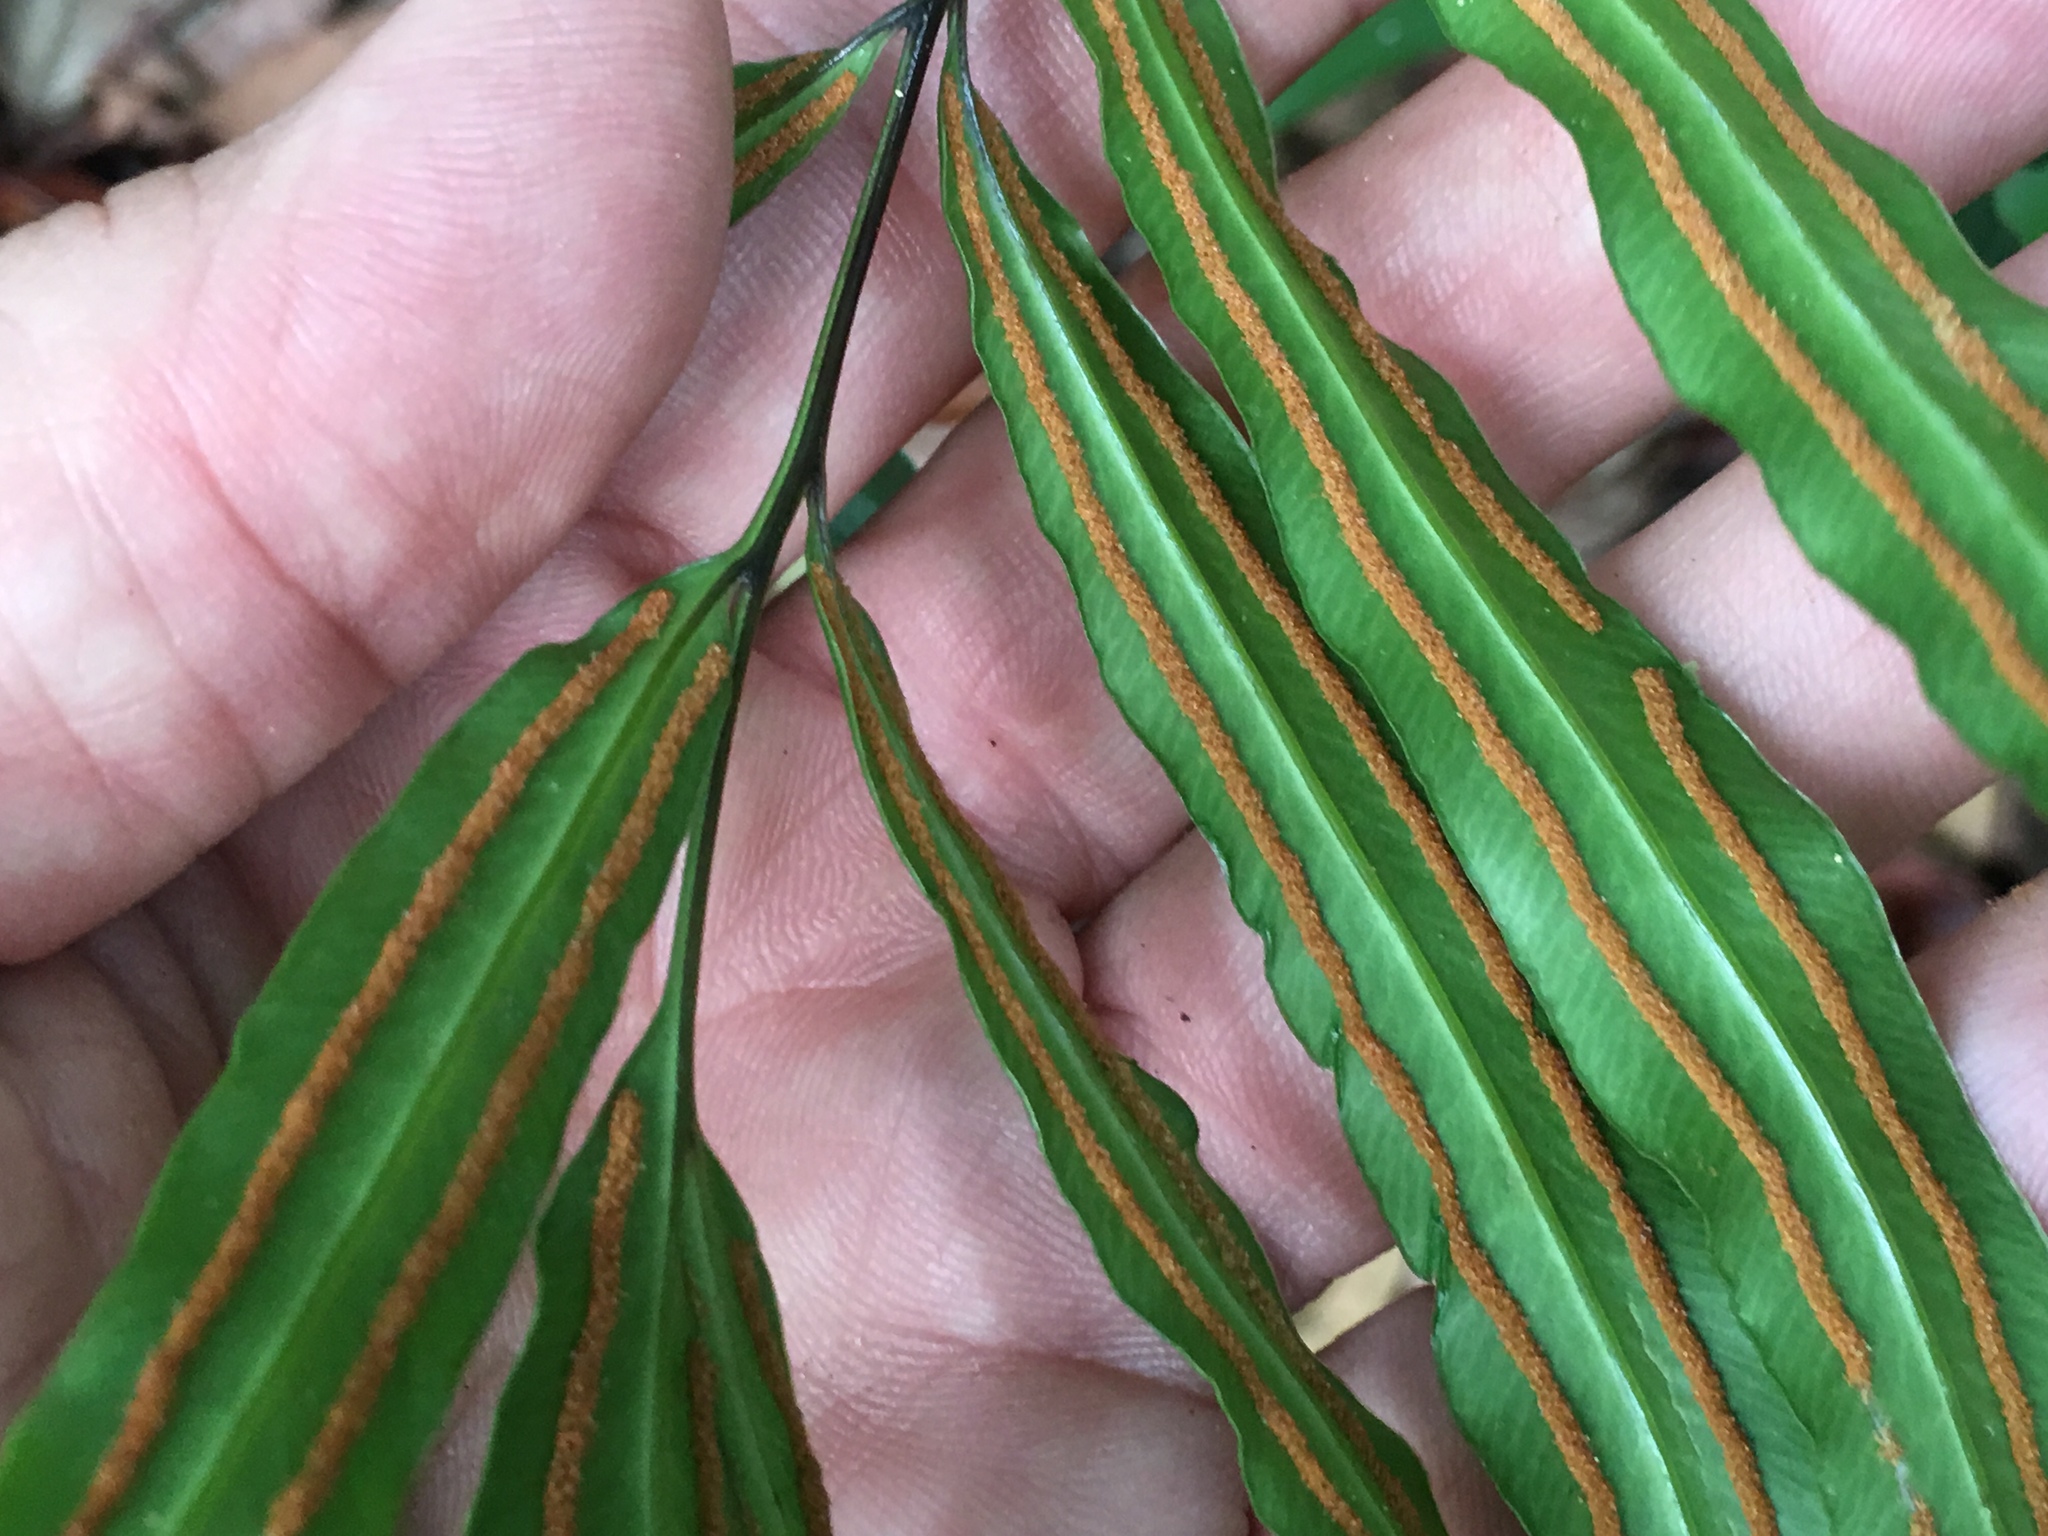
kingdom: Plantae
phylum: Tracheophyta
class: Polypodiopsida
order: Polypodiales
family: Pteridaceae
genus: Taenitis
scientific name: Taenitis blechnoides
